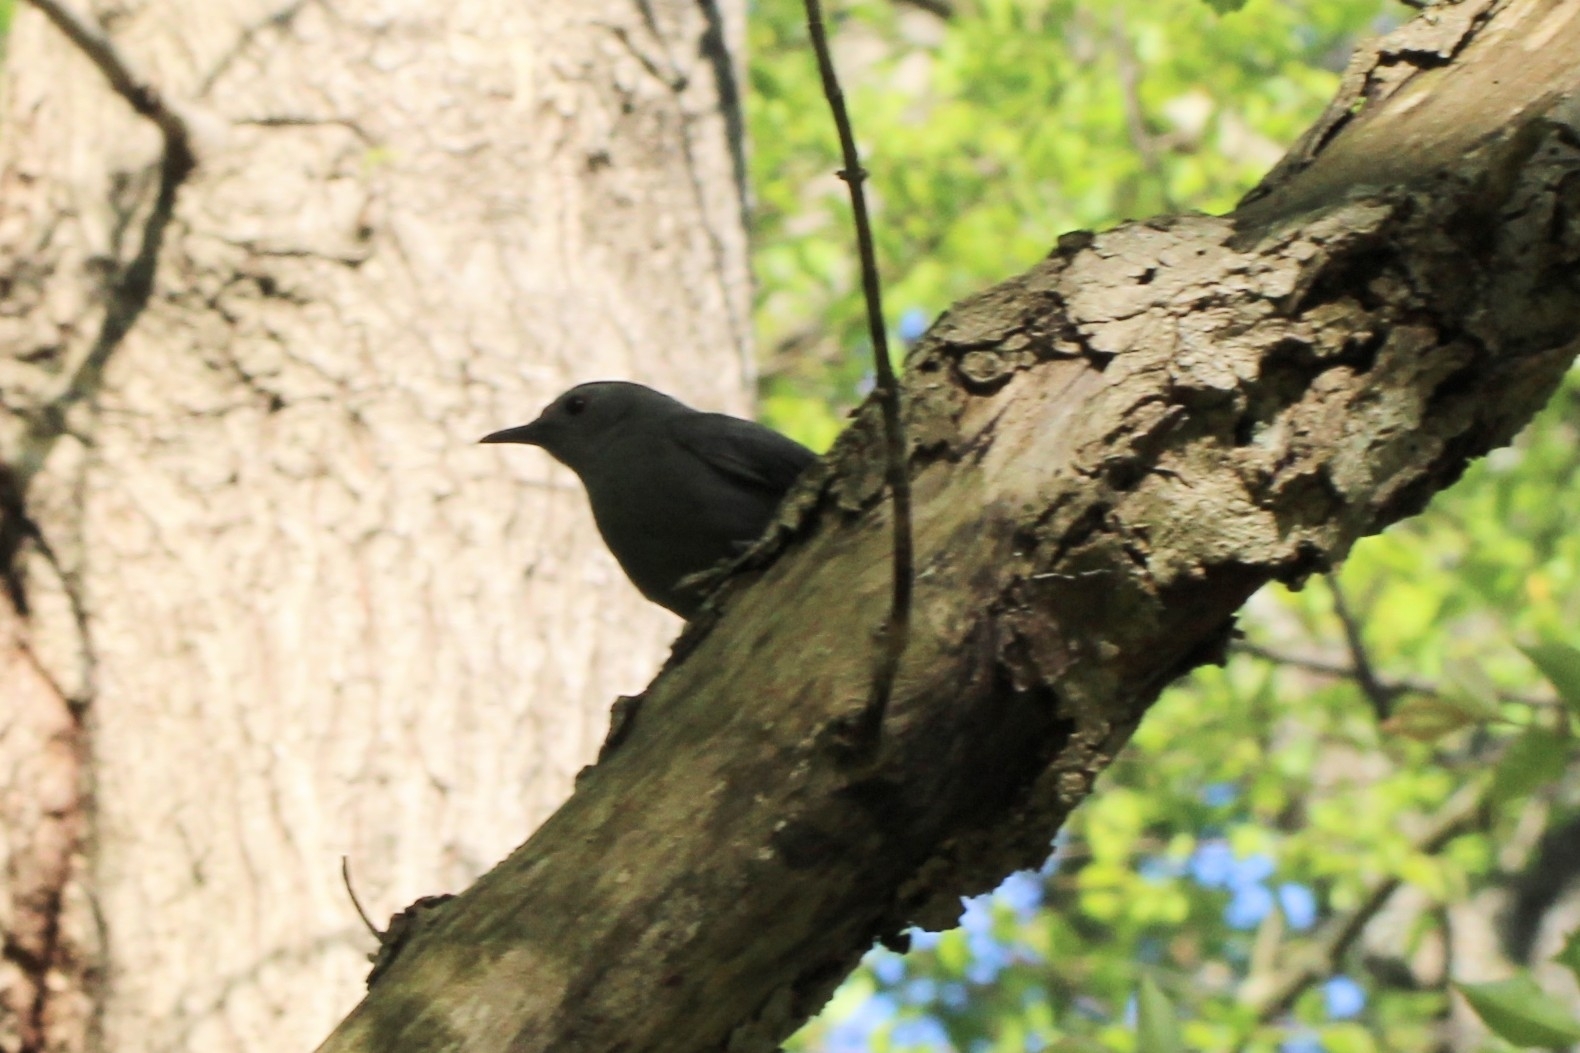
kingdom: Animalia
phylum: Chordata
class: Aves
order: Passeriformes
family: Mimidae
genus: Dumetella
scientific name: Dumetella carolinensis
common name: Gray catbird
